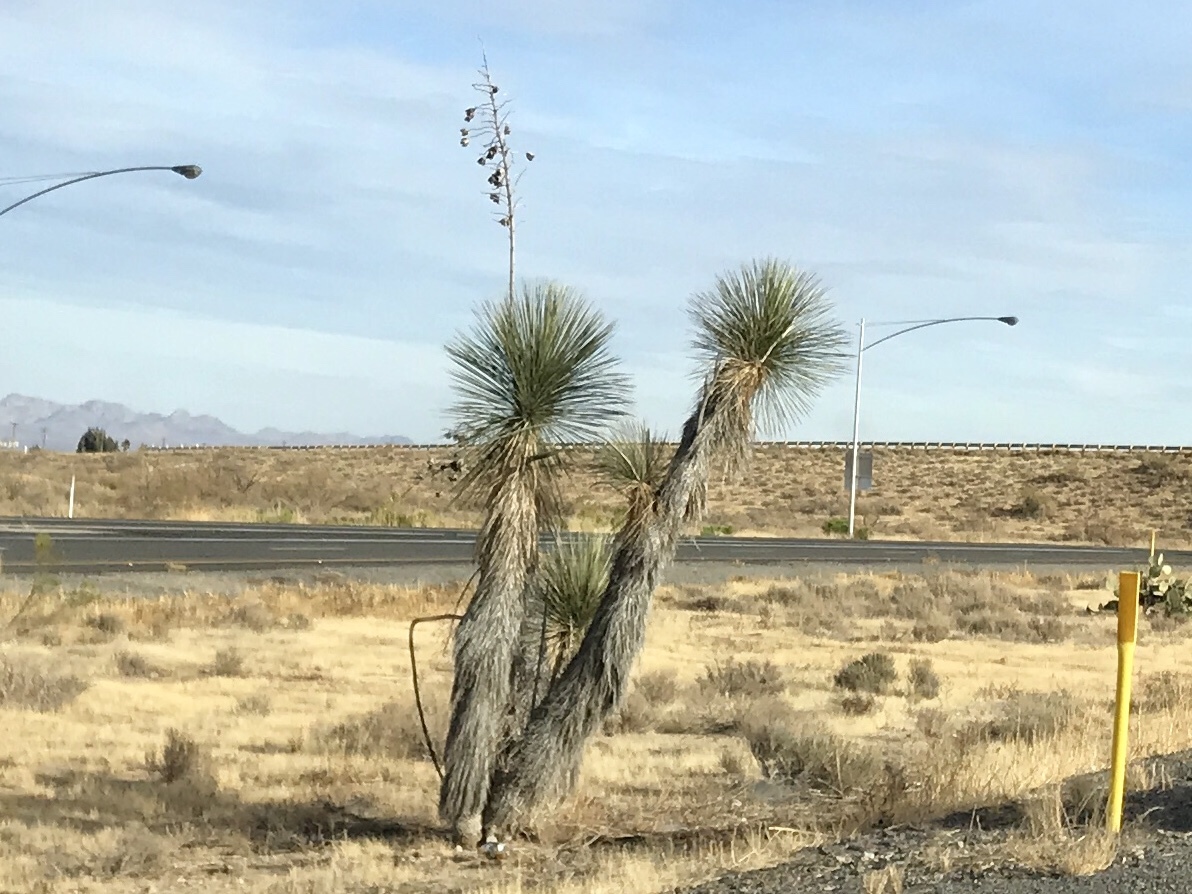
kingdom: Plantae
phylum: Tracheophyta
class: Liliopsida
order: Asparagales
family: Asparagaceae
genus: Yucca
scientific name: Yucca elata
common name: Palmella
